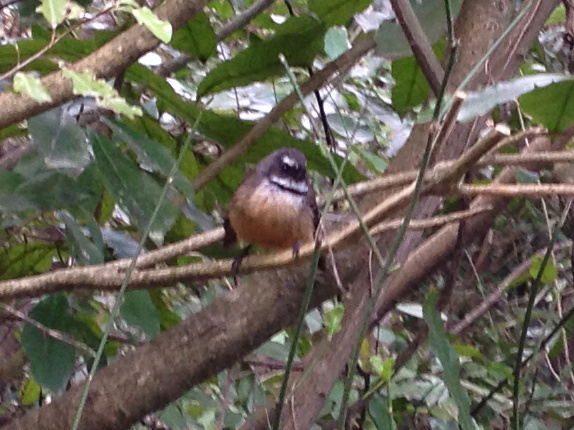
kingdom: Animalia
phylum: Chordata
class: Aves
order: Passeriformes
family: Rhipiduridae
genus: Rhipidura
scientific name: Rhipidura fuliginosa
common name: New zealand fantail
